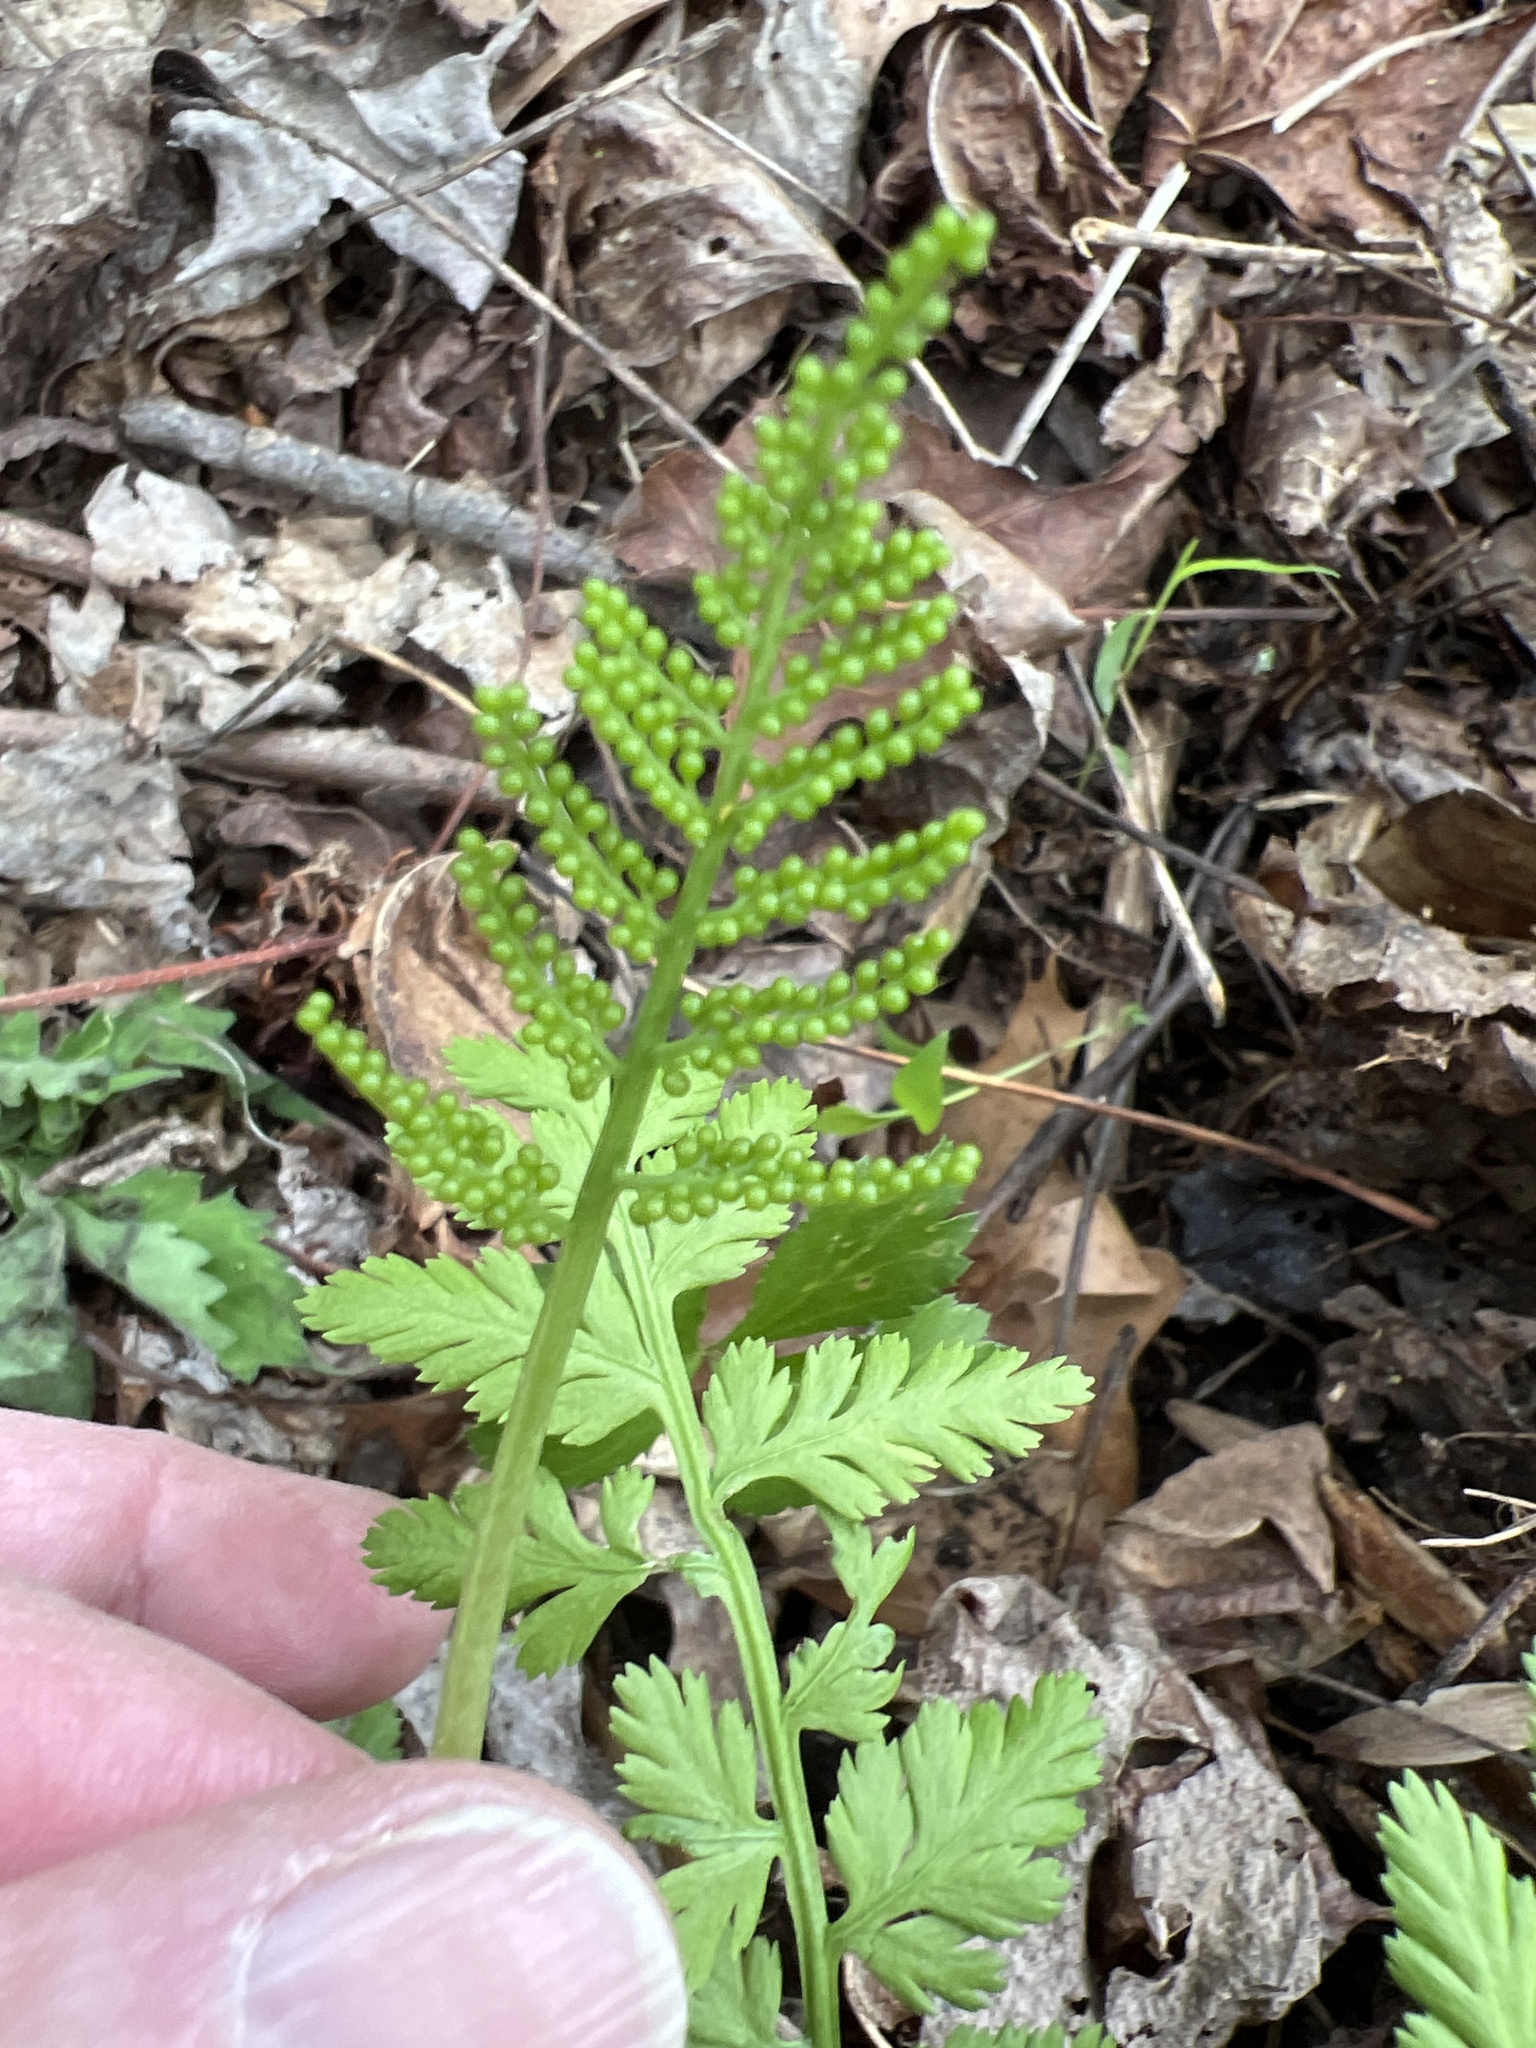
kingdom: Plantae
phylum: Tracheophyta
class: Polypodiopsida
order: Ophioglossales
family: Ophioglossaceae
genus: Botrypus
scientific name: Botrypus virginianus
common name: Common grapefern
